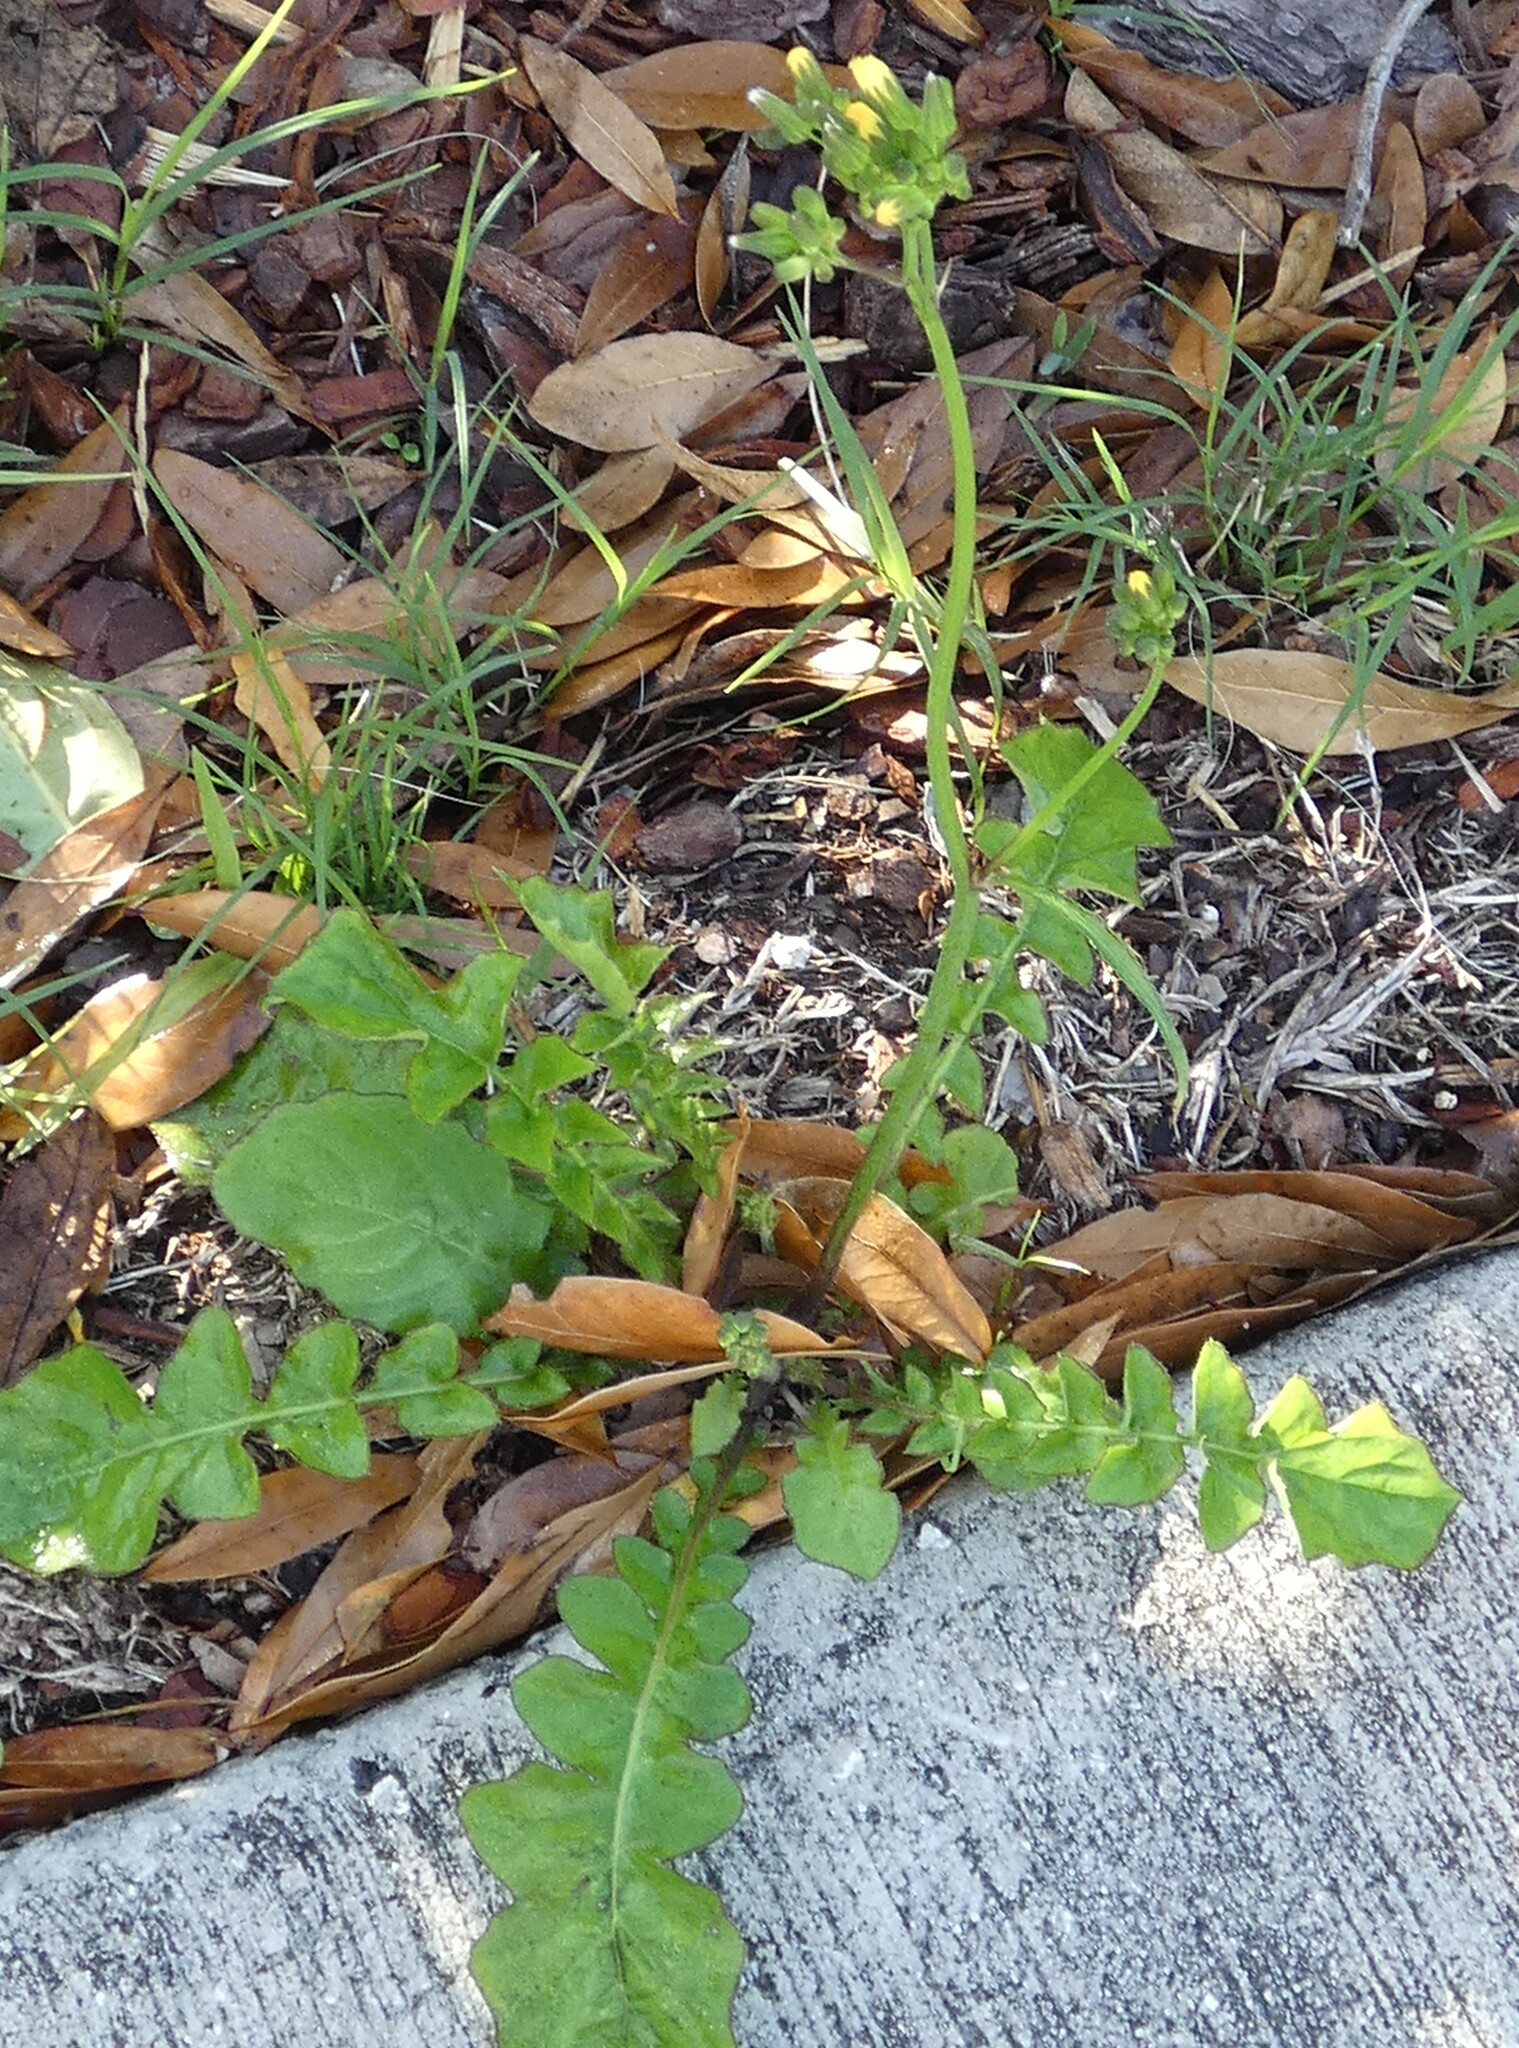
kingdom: Plantae
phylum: Tracheophyta
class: Magnoliopsida
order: Asterales
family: Asteraceae
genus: Youngia
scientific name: Youngia japonica
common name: Oriental false hawksbeard
